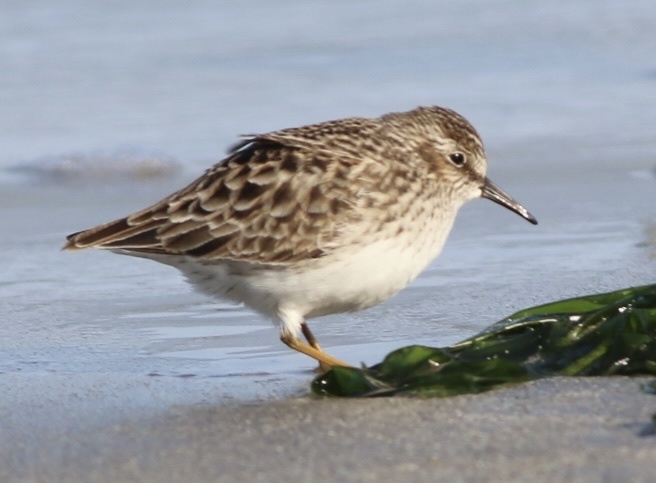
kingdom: Animalia
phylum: Chordata
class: Aves
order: Charadriiformes
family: Scolopacidae
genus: Calidris
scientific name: Calidris minutilla
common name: Least sandpiper
